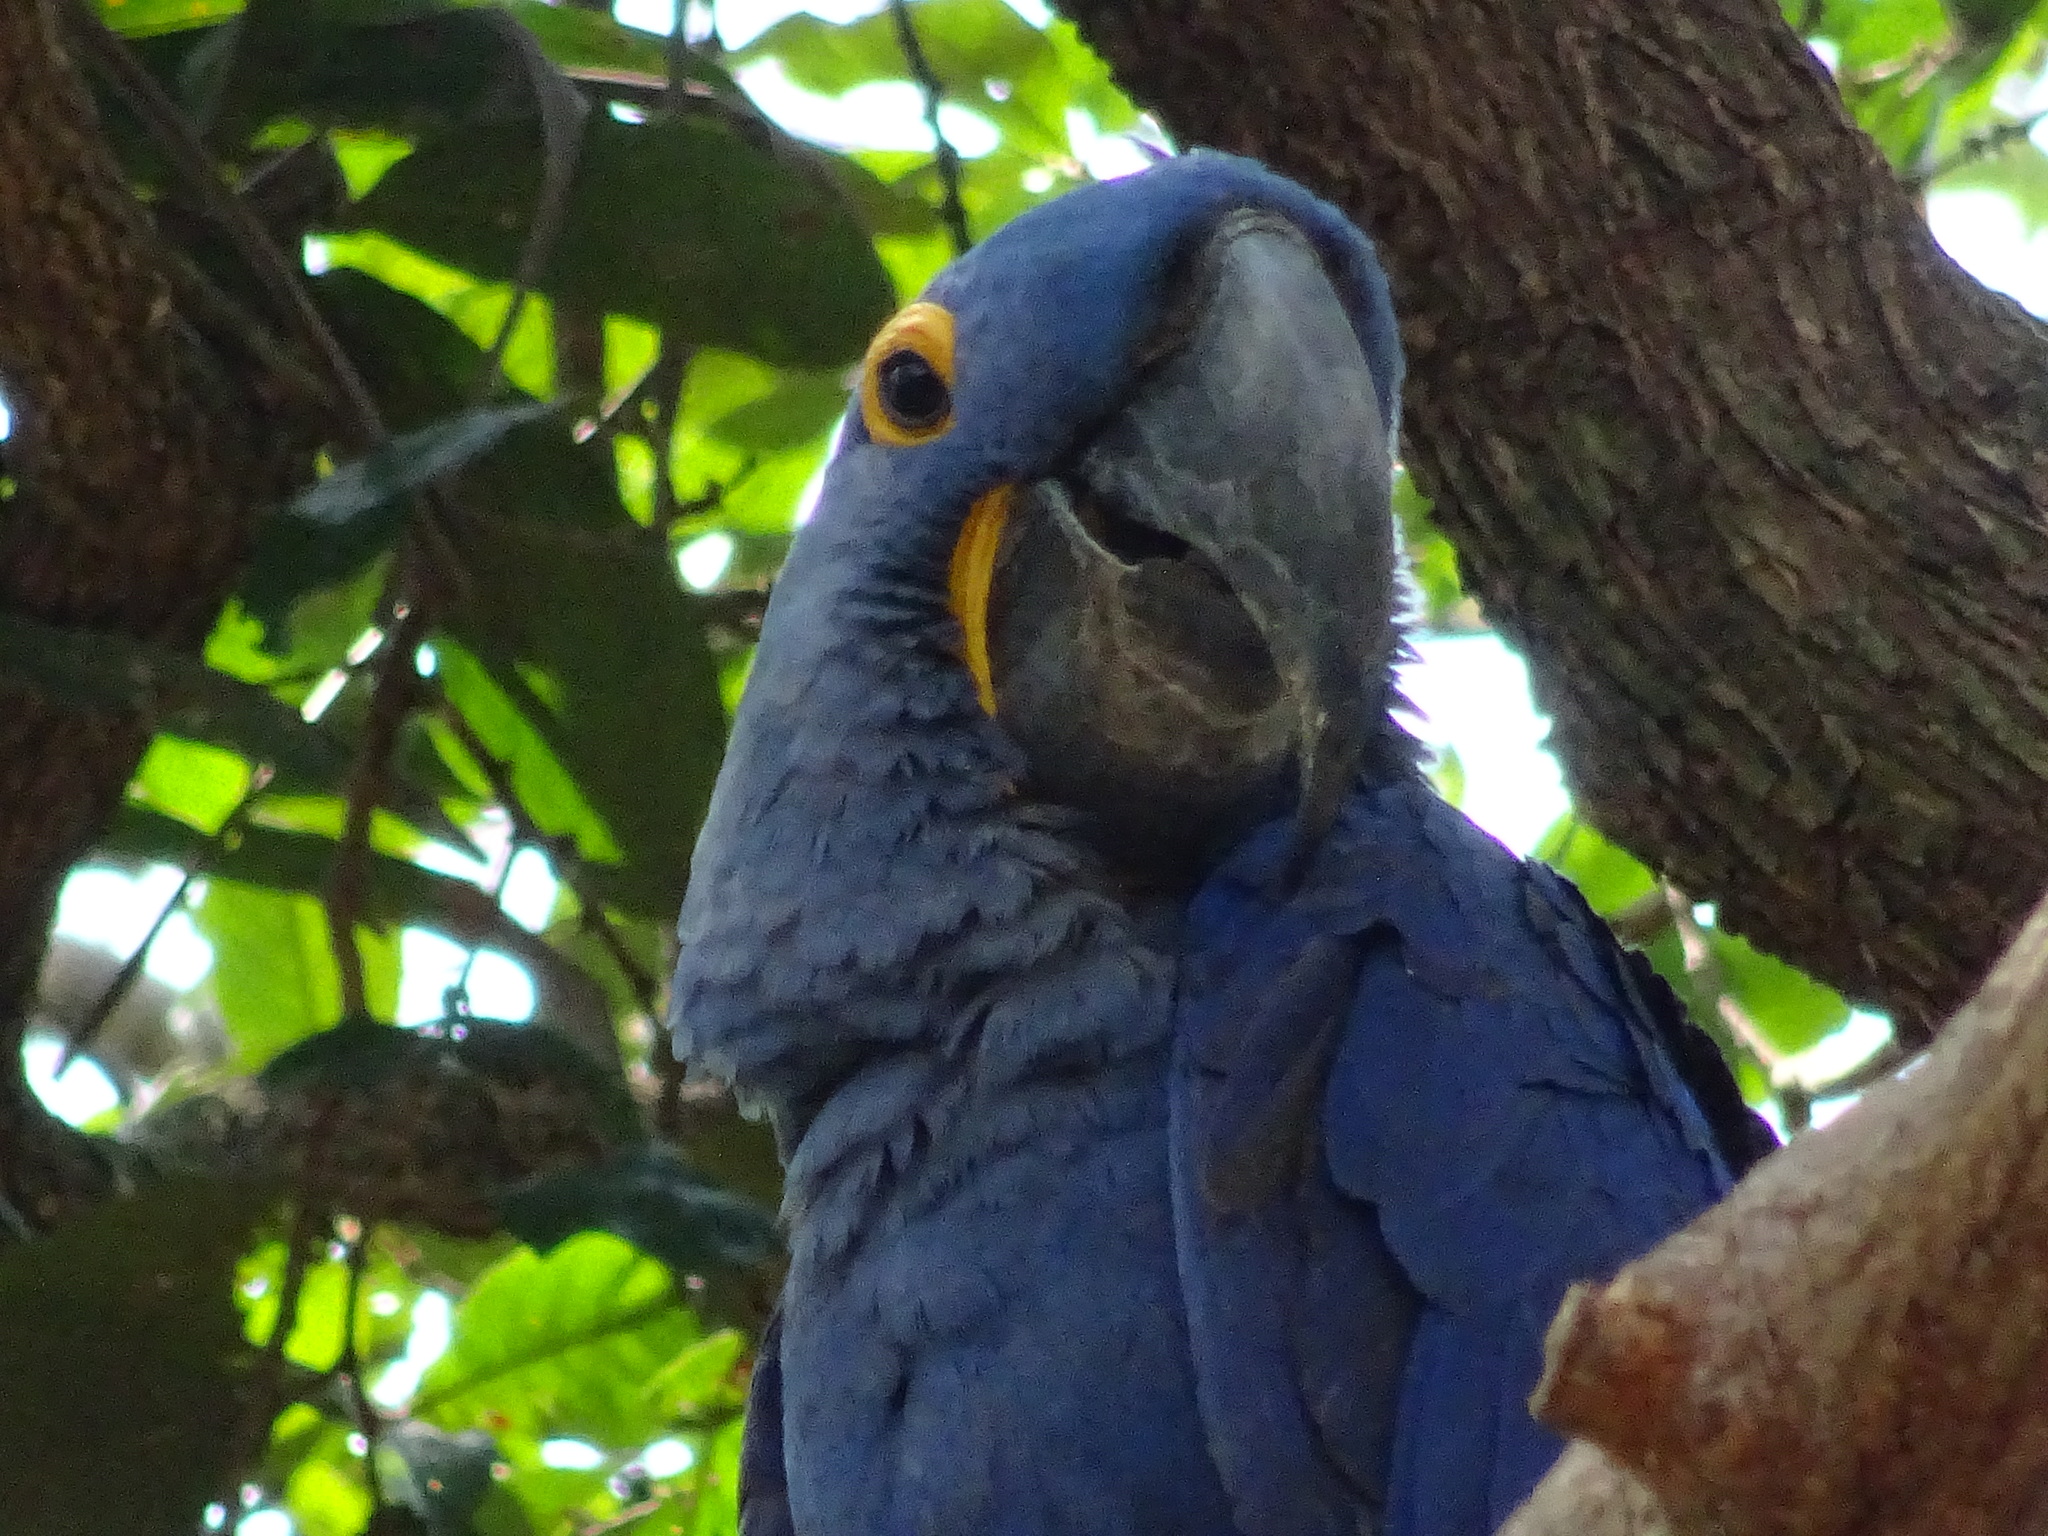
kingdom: Animalia
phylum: Chordata
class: Aves
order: Psittaciformes
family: Psittacidae
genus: Anodorhynchus
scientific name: Anodorhynchus hyacinthinus
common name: Hyacinth macaw
